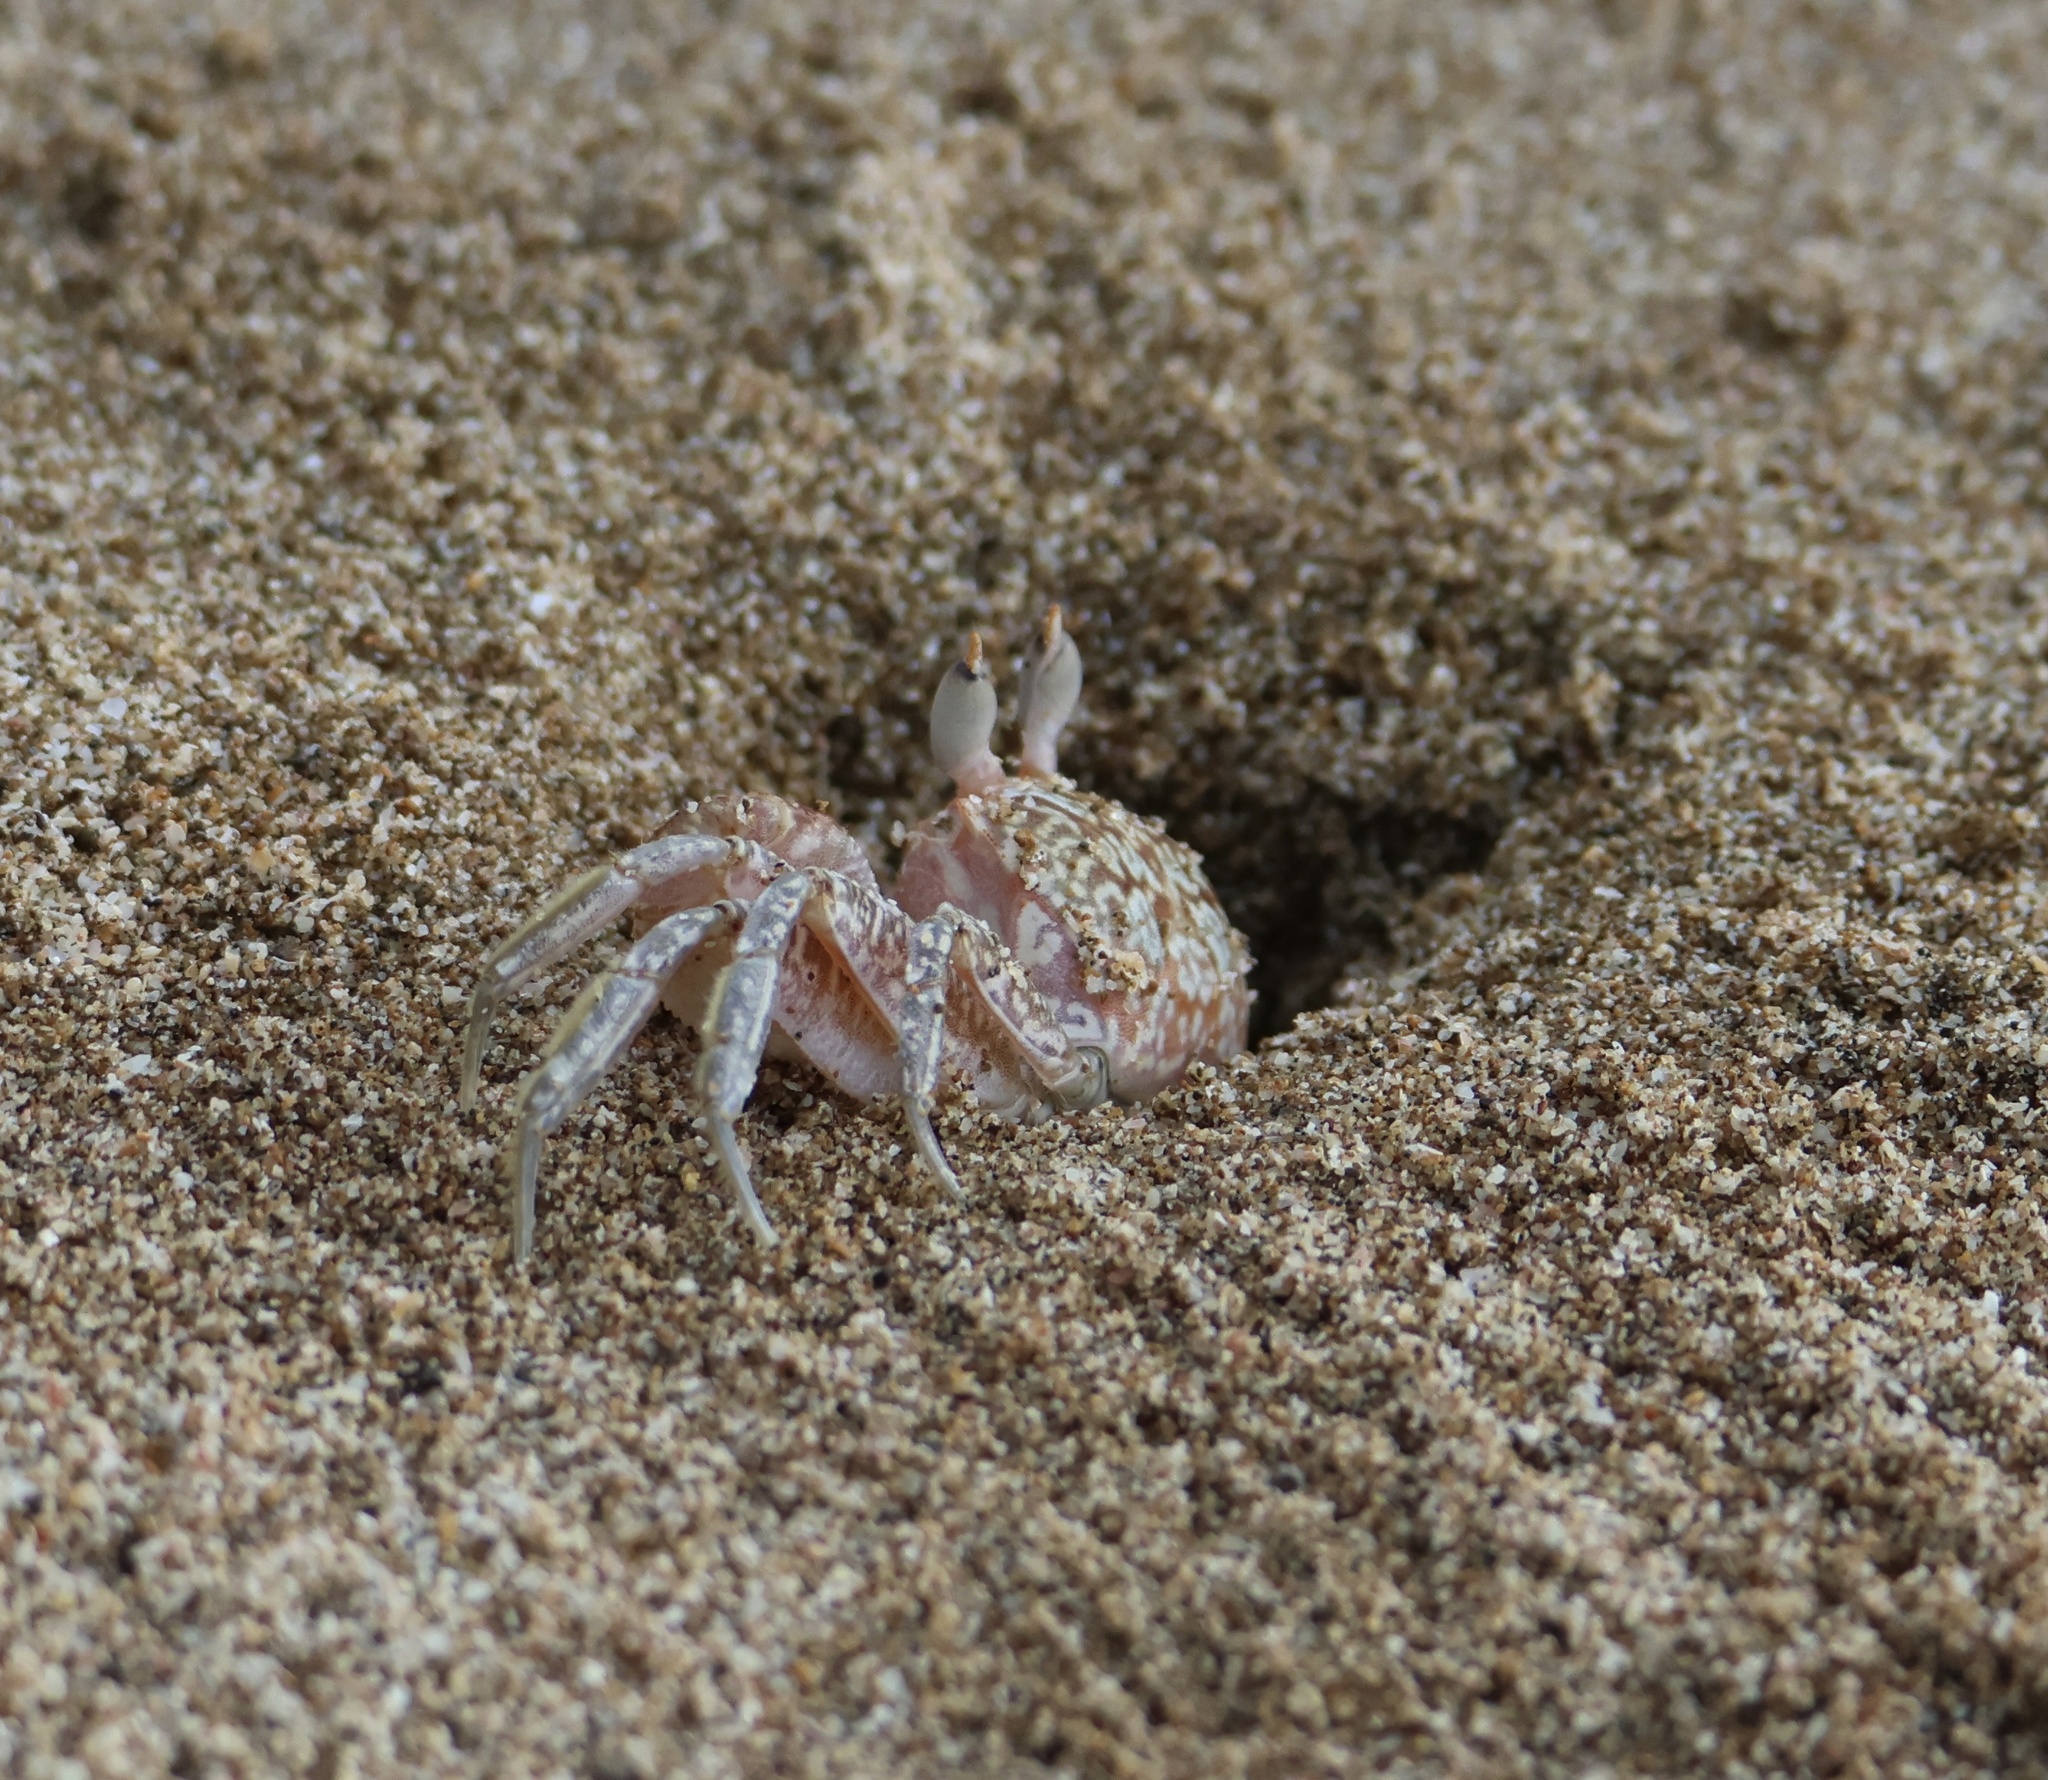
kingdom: Animalia
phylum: Arthropoda
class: Malacostraca
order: Decapoda
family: Ocypodidae
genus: Ocypode
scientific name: Ocypode gaudichaudii
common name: Pacific ghost crab
